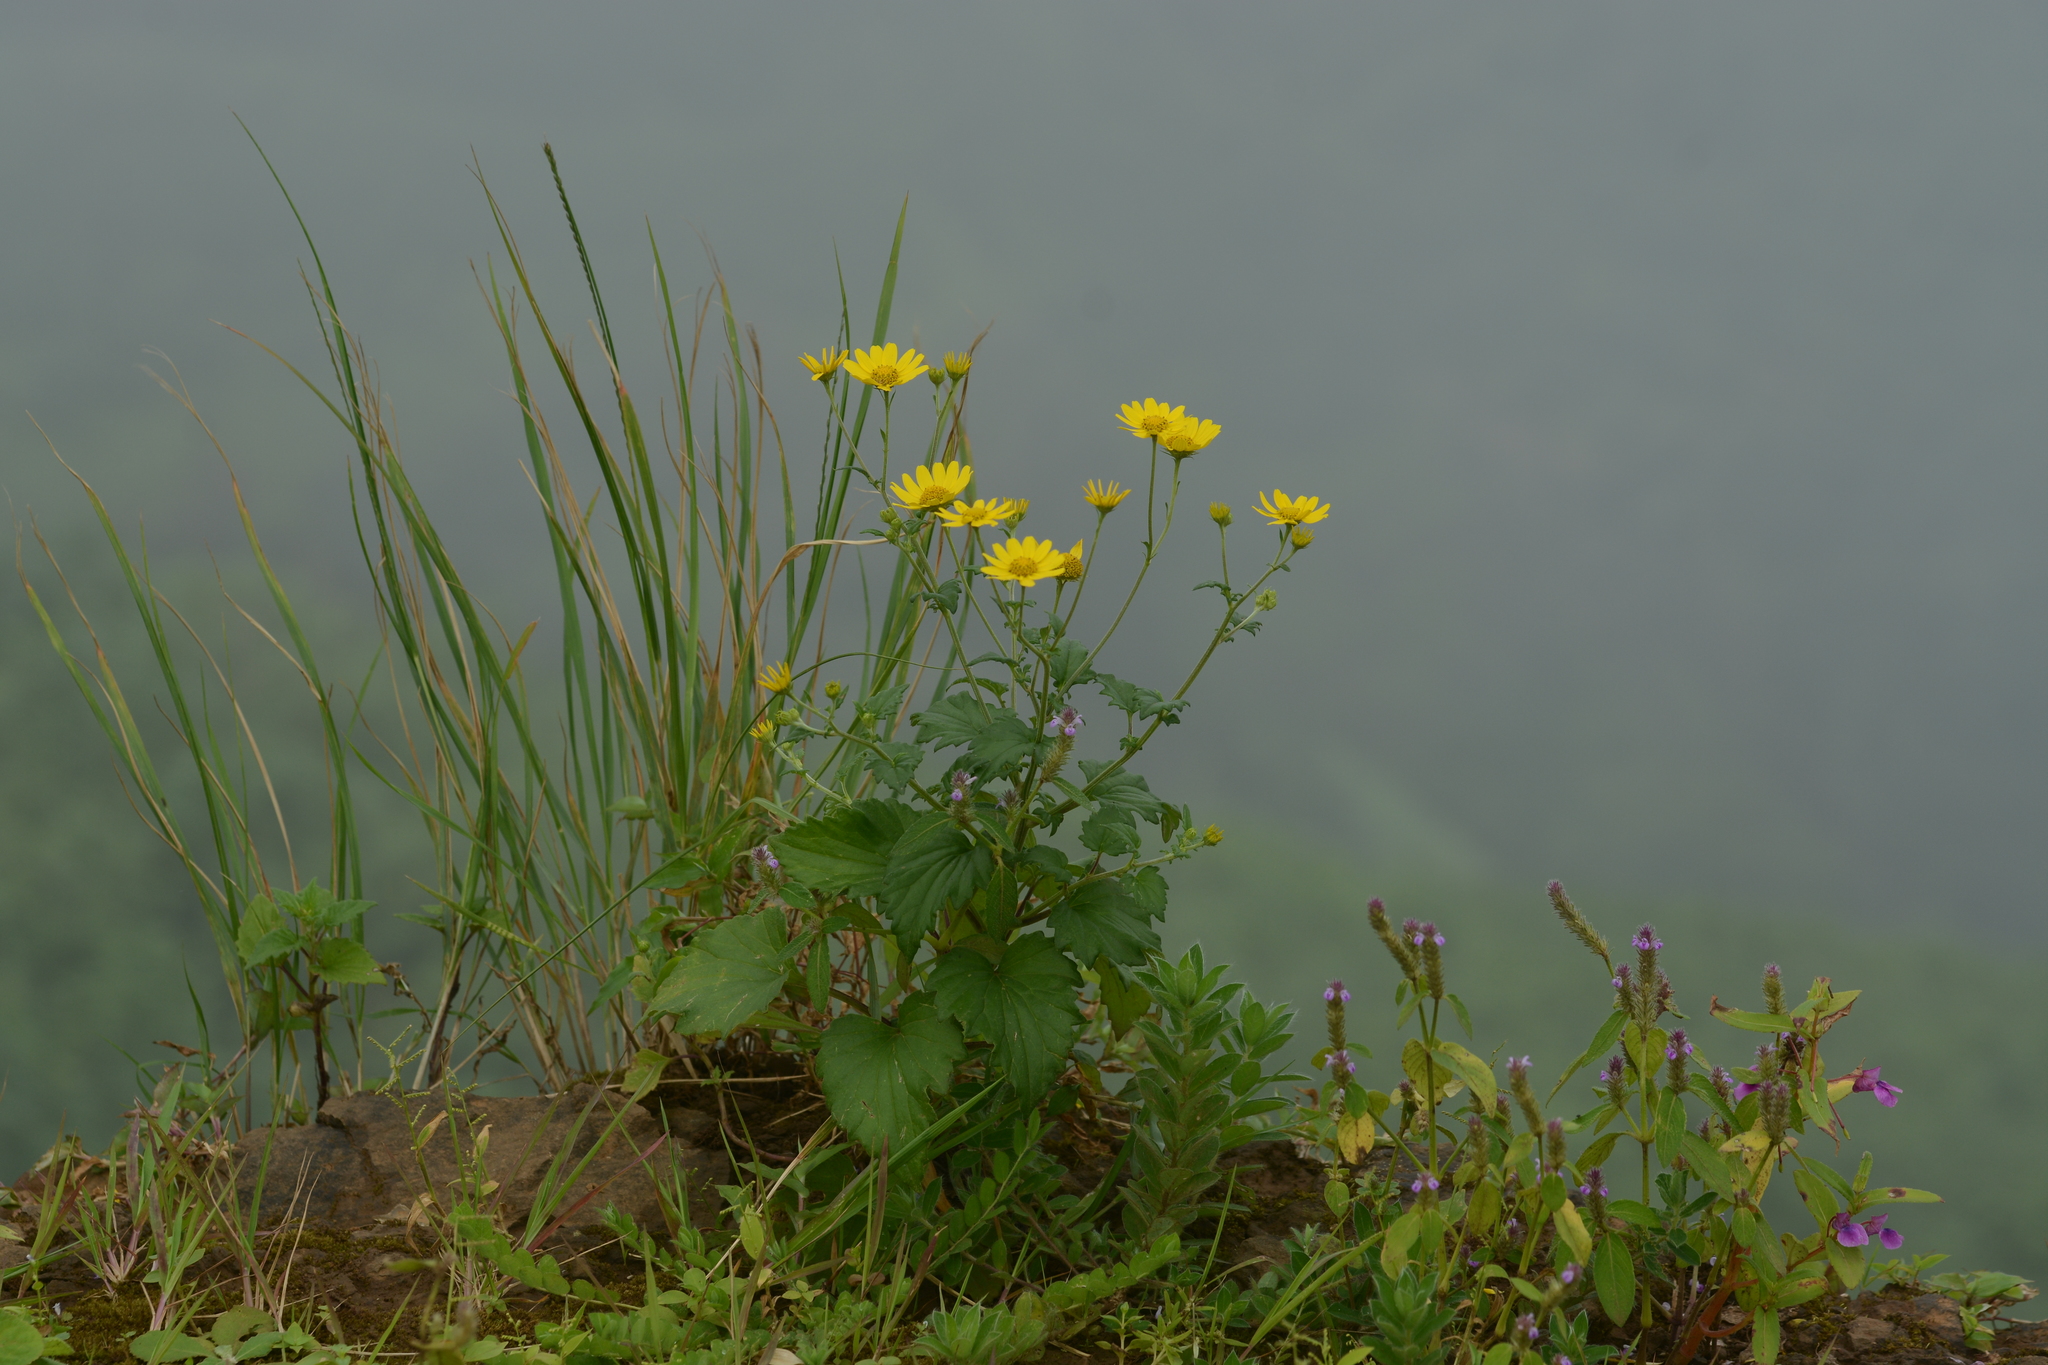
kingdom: Plantae
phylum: Tracheophyta
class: Magnoliopsida
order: Asterales
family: Asteraceae
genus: Senecio
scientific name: Senecio bombayensis
